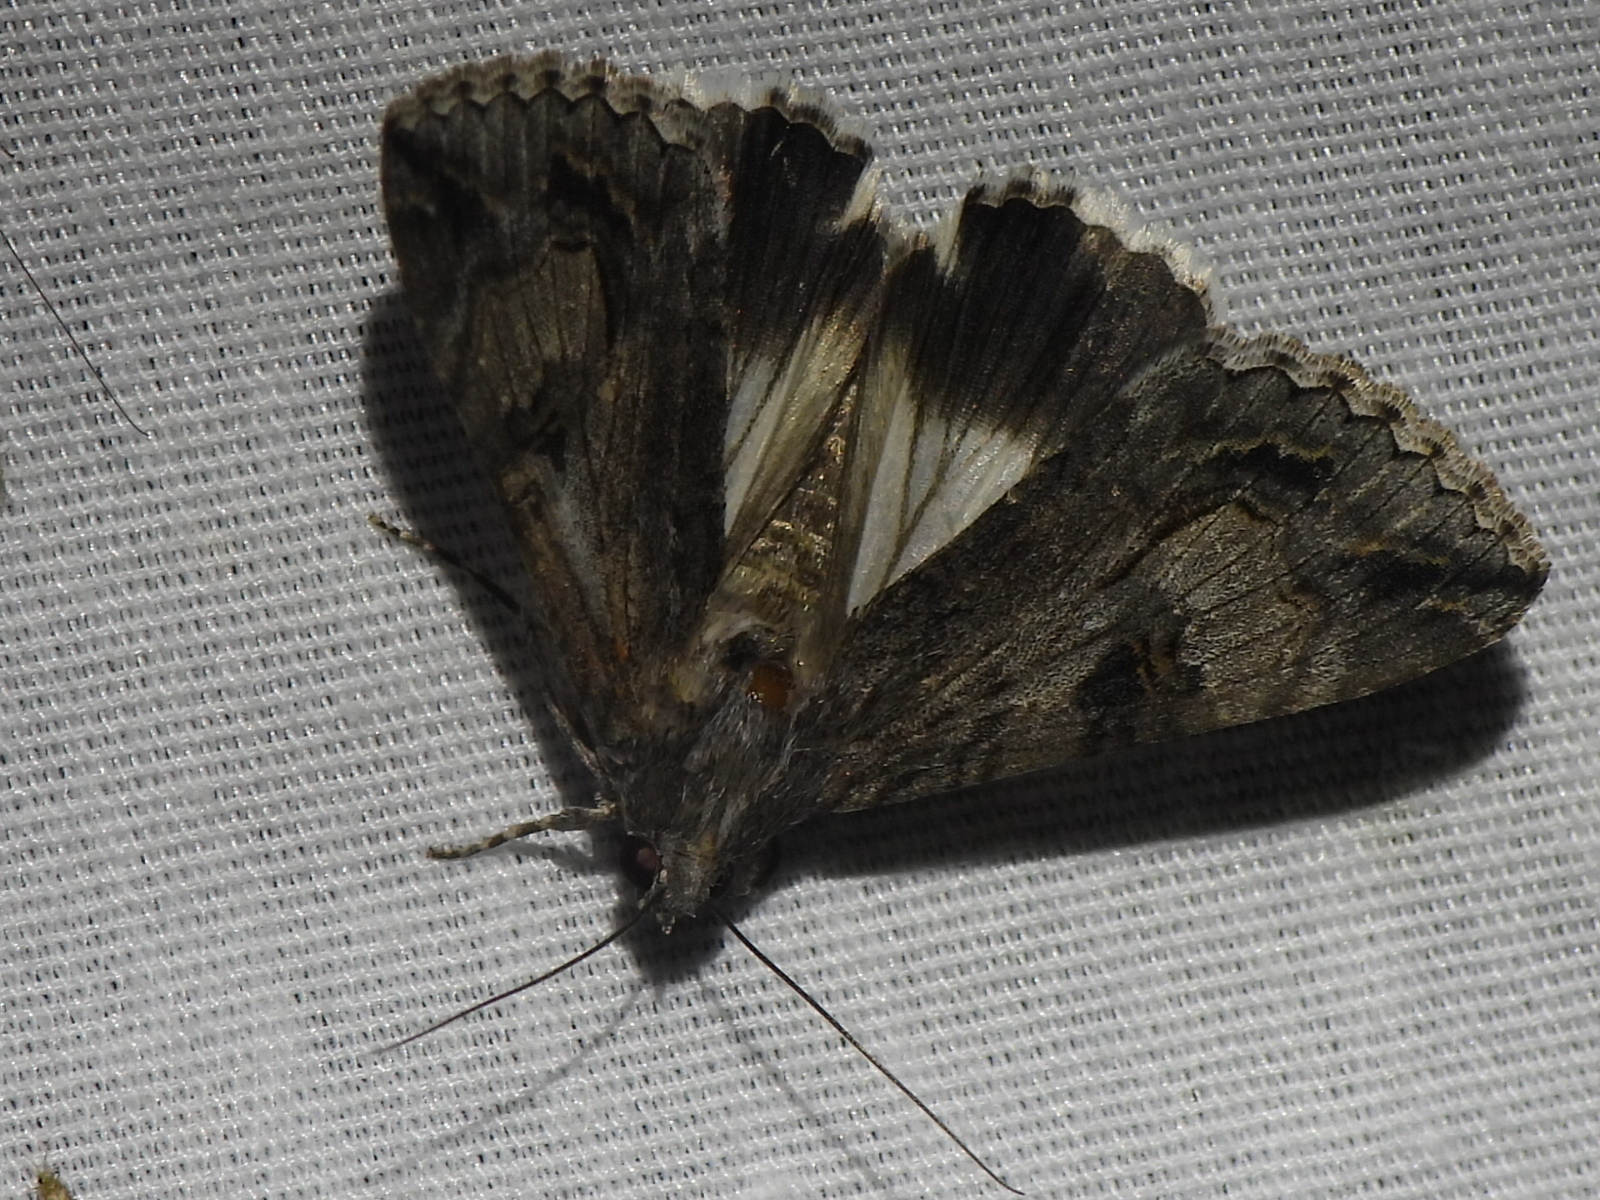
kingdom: Animalia
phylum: Arthropoda
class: Insecta
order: Lepidoptera
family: Erebidae
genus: Melipotis
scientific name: Melipotis jucunda
